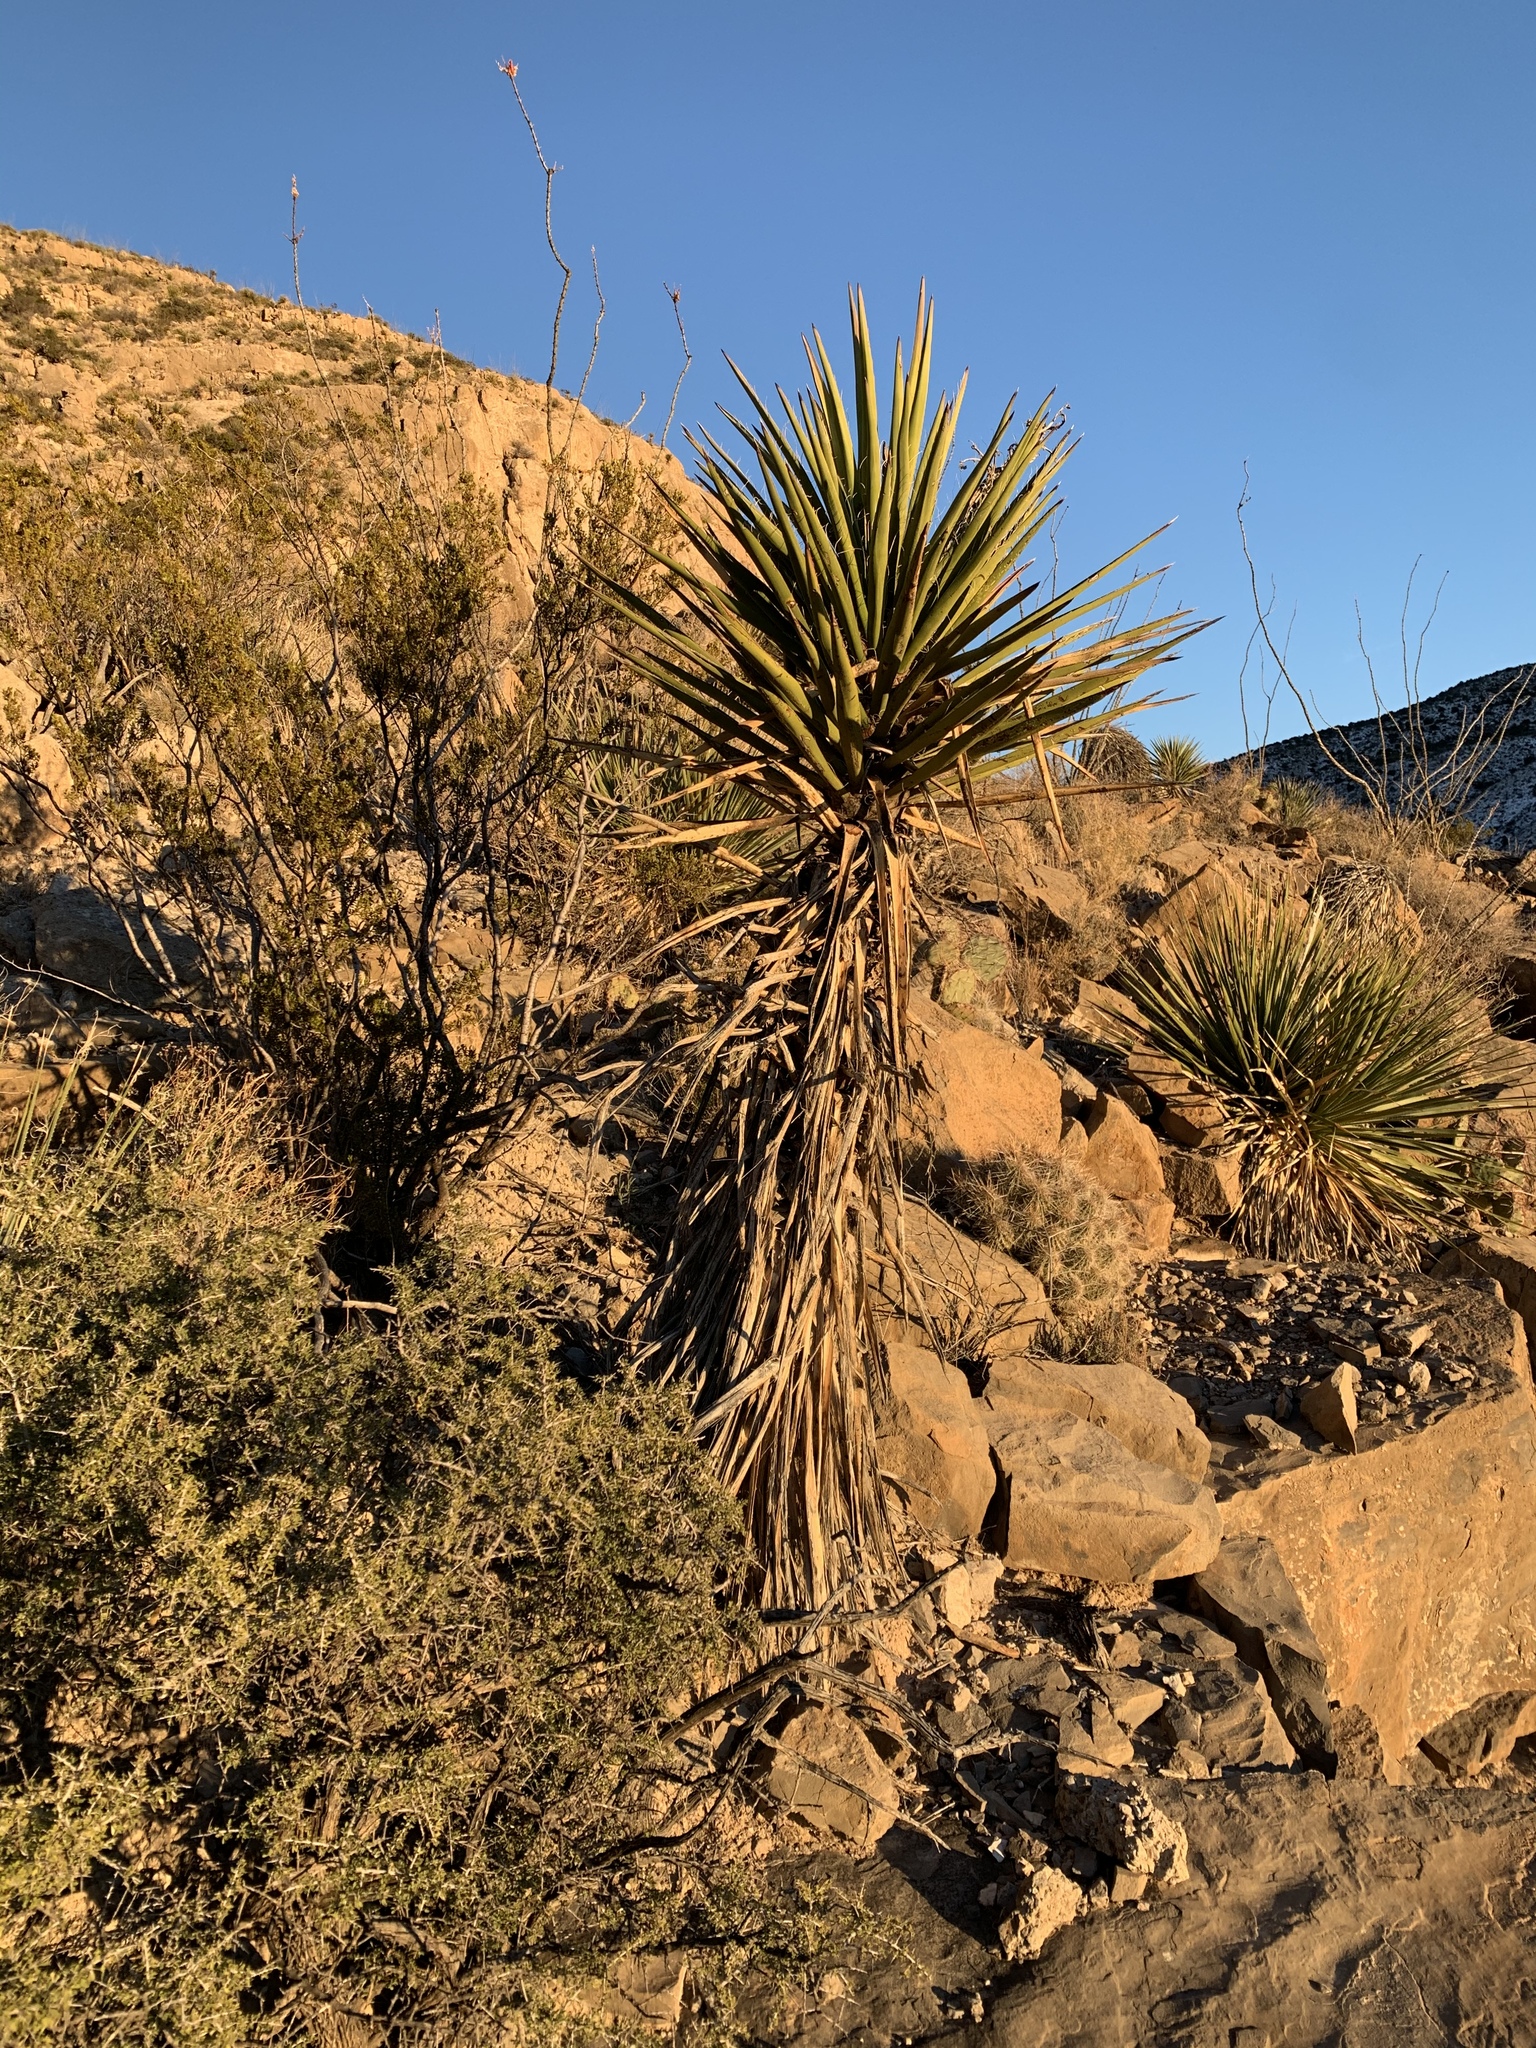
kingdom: Plantae
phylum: Tracheophyta
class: Liliopsida
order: Asparagales
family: Asparagaceae
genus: Yucca
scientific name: Yucca treculiana
